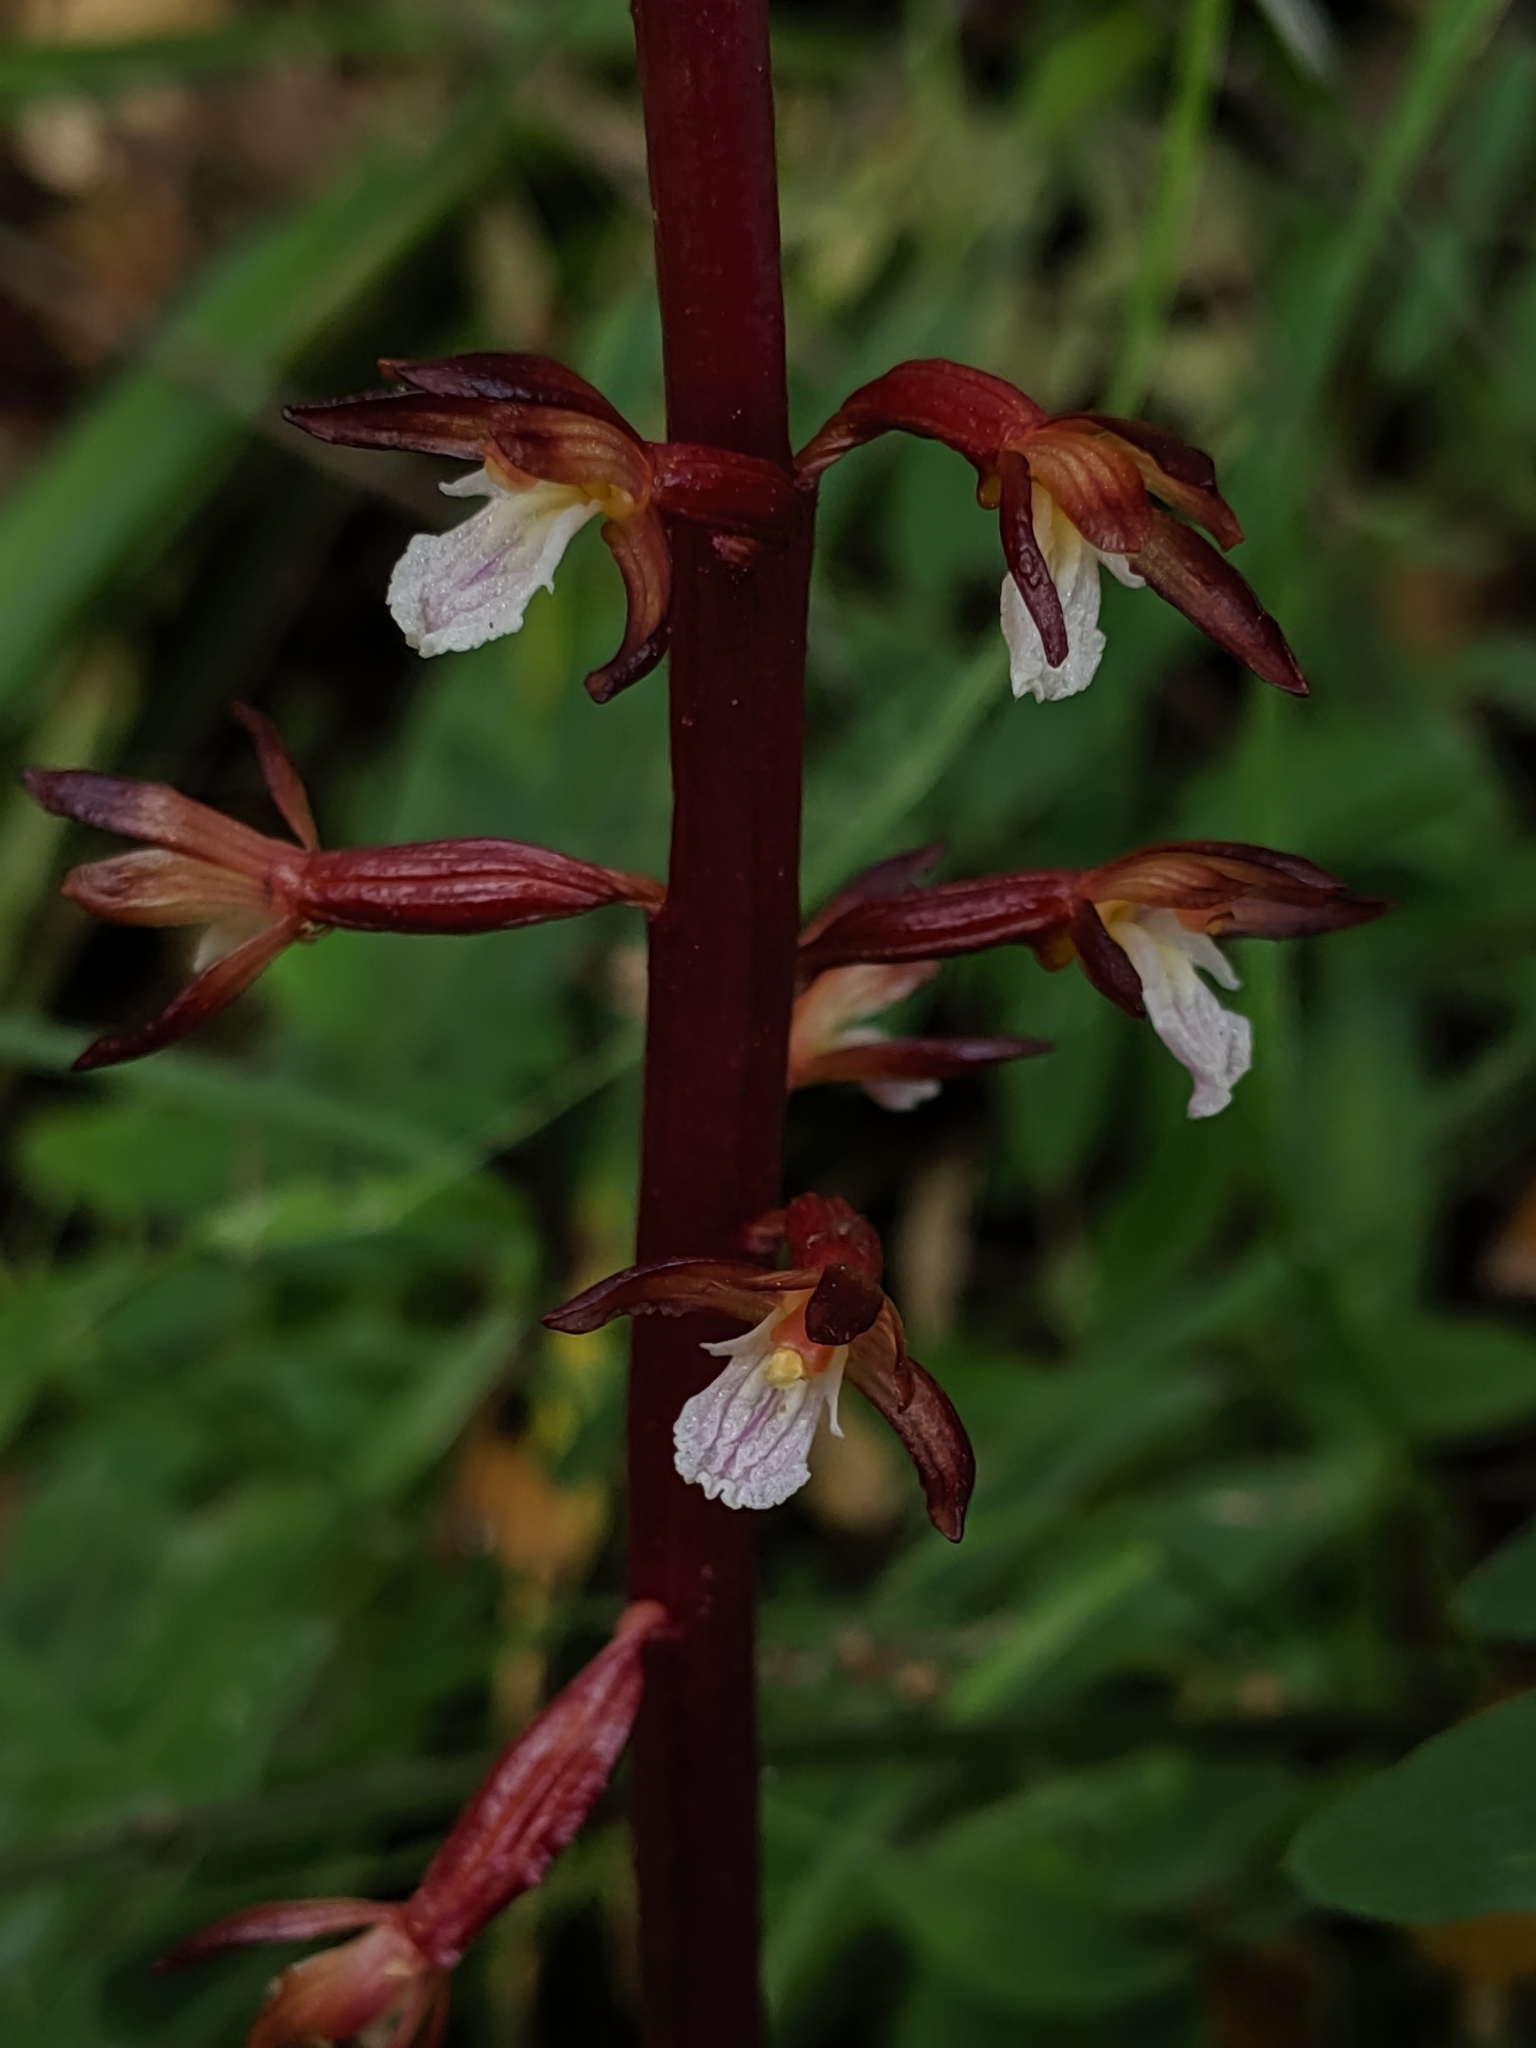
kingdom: Plantae
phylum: Tracheophyta
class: Liliopsida
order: Asparagales
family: Orchidaceae
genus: Corallorhiza
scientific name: Corallorhiza maculata
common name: Spotted coralroot
